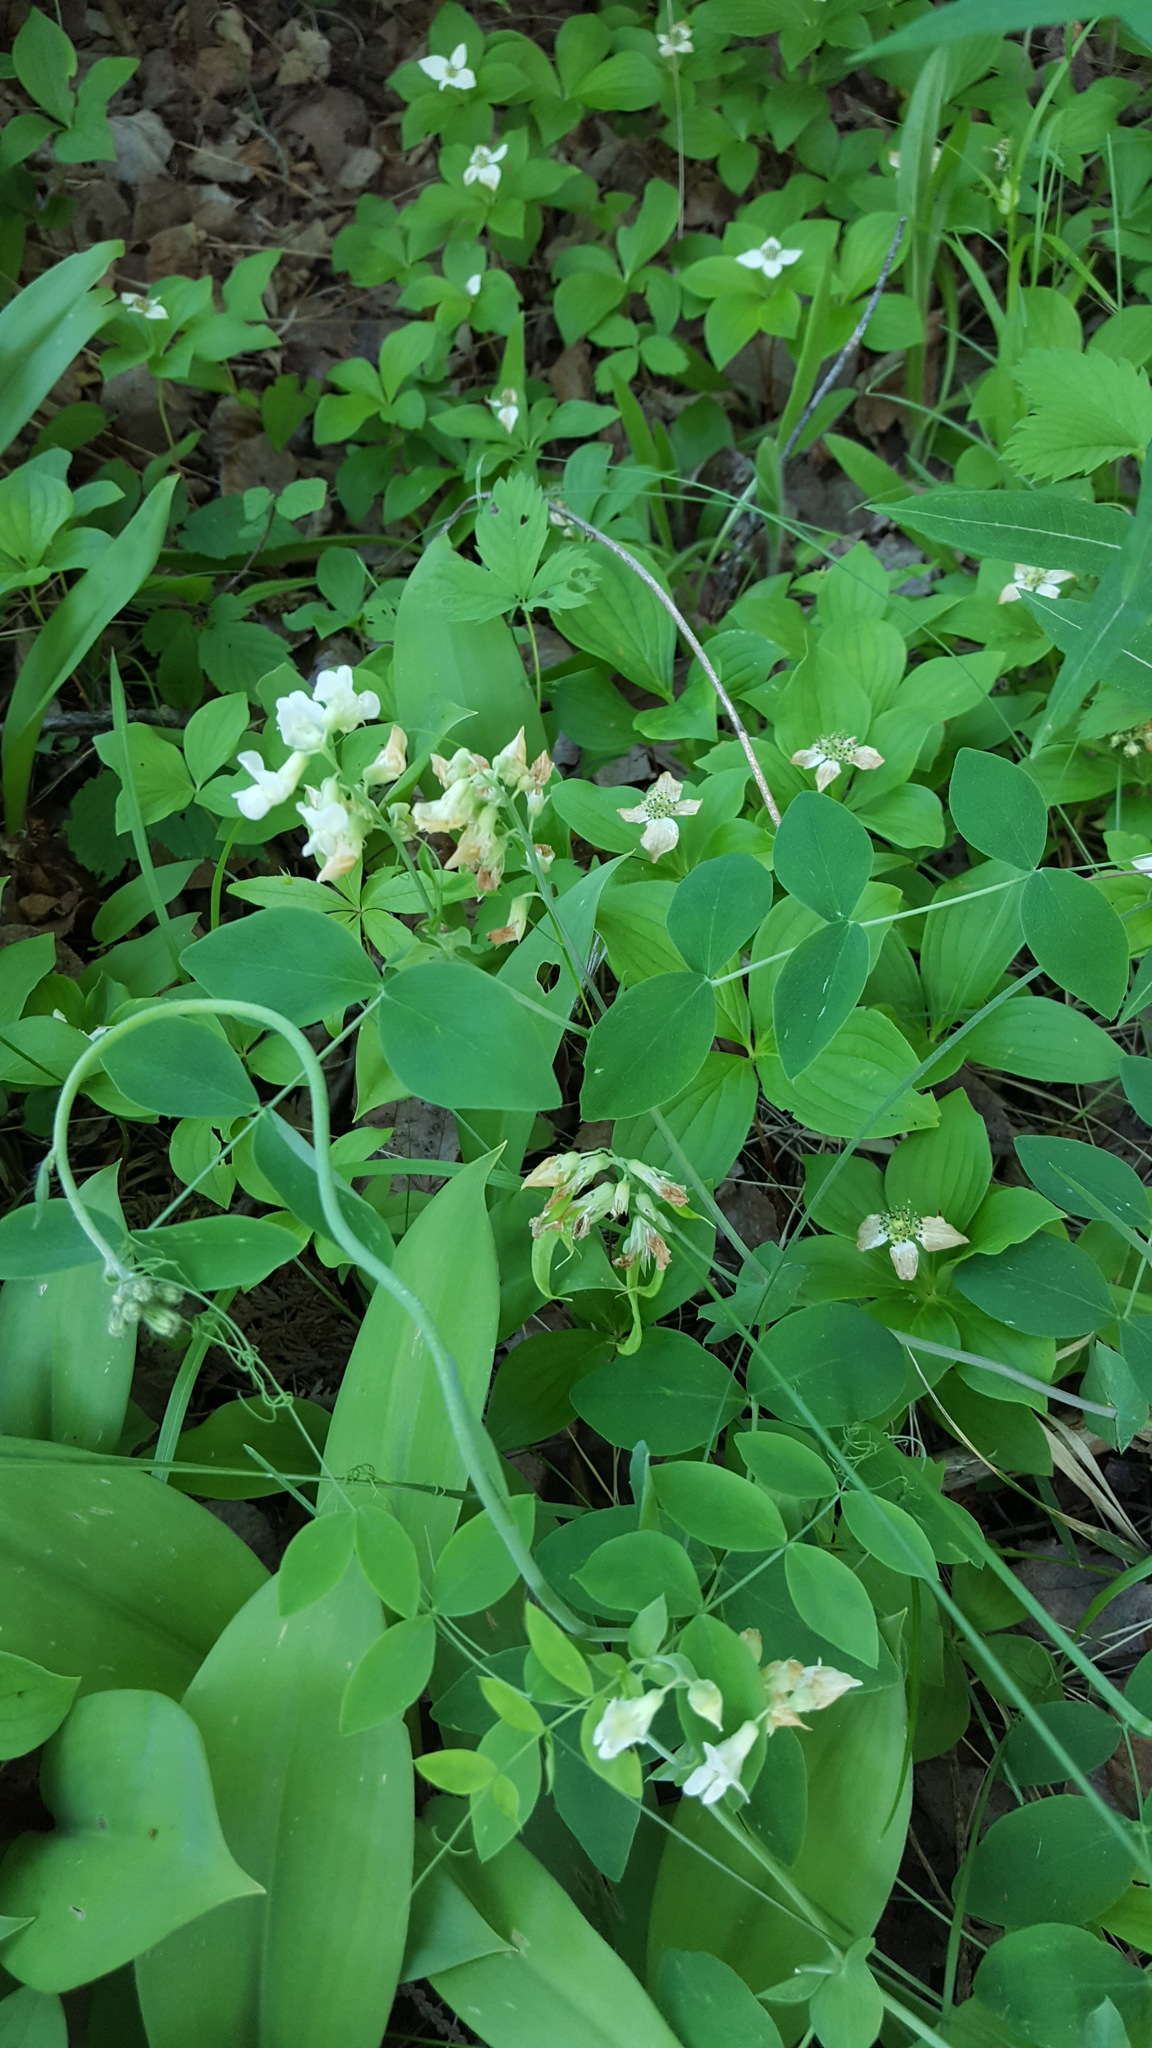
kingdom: Plantae
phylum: Tracheophyta
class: Magnoliopsida
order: Fabales
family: Fabaceae
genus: Lathyrus
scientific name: Lathyrus ochroleucus
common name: Pale vetchling
